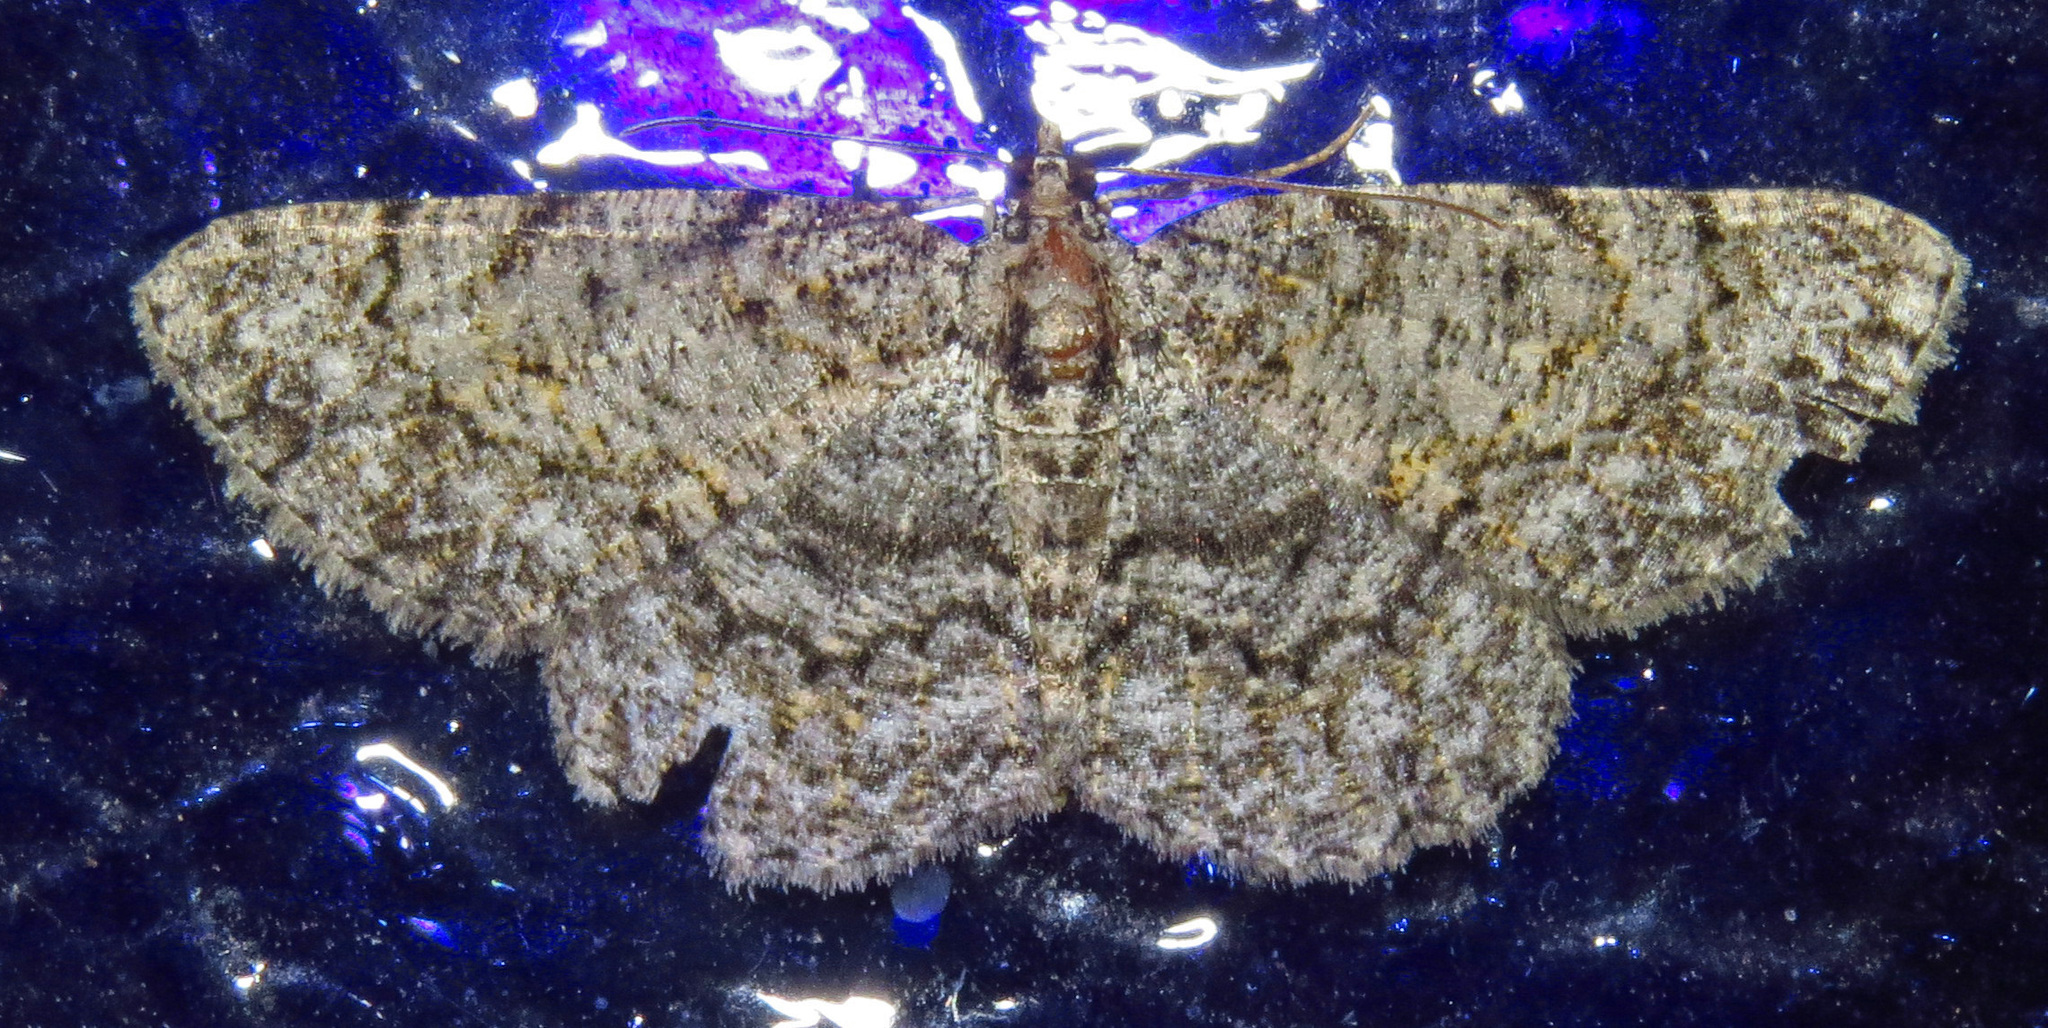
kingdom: Animalia
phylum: Arthropoda
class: Insecta
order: Lepidoptera
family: Geometridae
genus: Protoboarmia
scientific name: Protoboarmia porcelaria
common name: Porcelain gray
